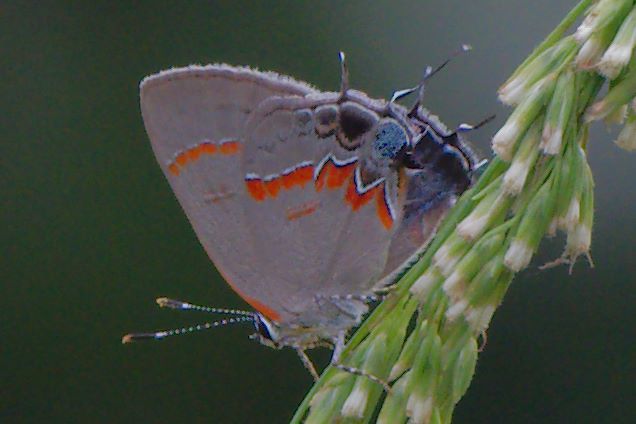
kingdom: Animalia
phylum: Arthropoda
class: Insecta
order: Lepidoptera
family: Lycaenidae
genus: Calycopis
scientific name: Calycopis cecrops
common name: Red-banded hairstreak
